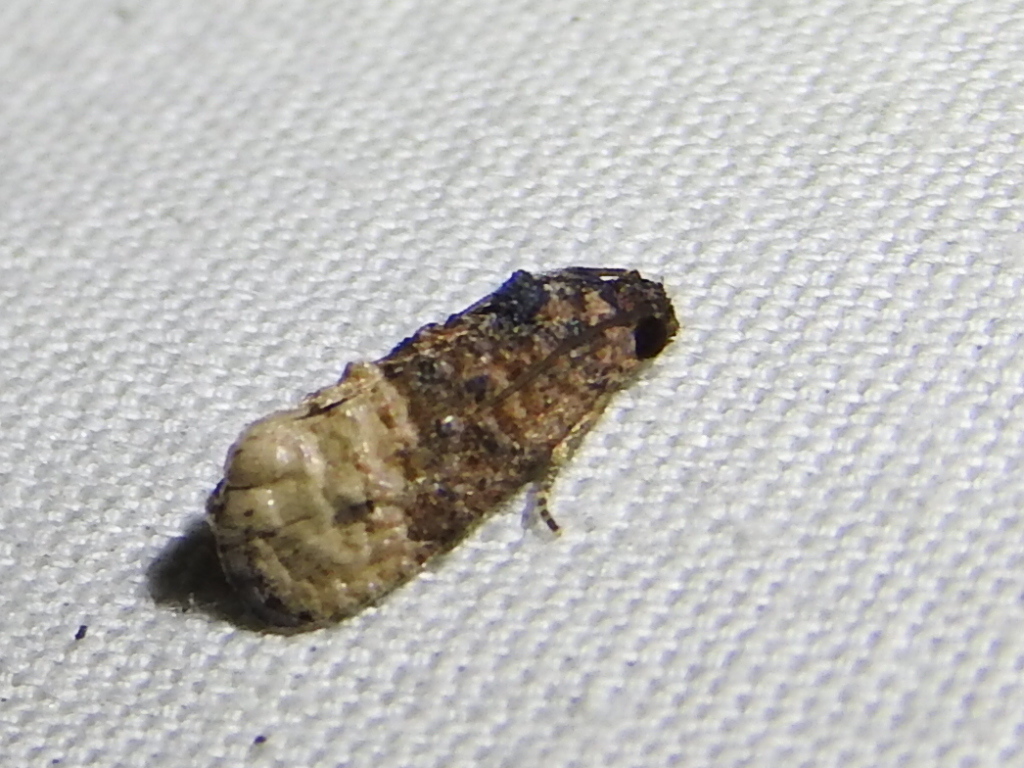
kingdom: Animalia
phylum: Arthropoda
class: Insecta
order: Lepidoptera
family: Tortricidae
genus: Ecdytolopha
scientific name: Ecdytolopha mana
